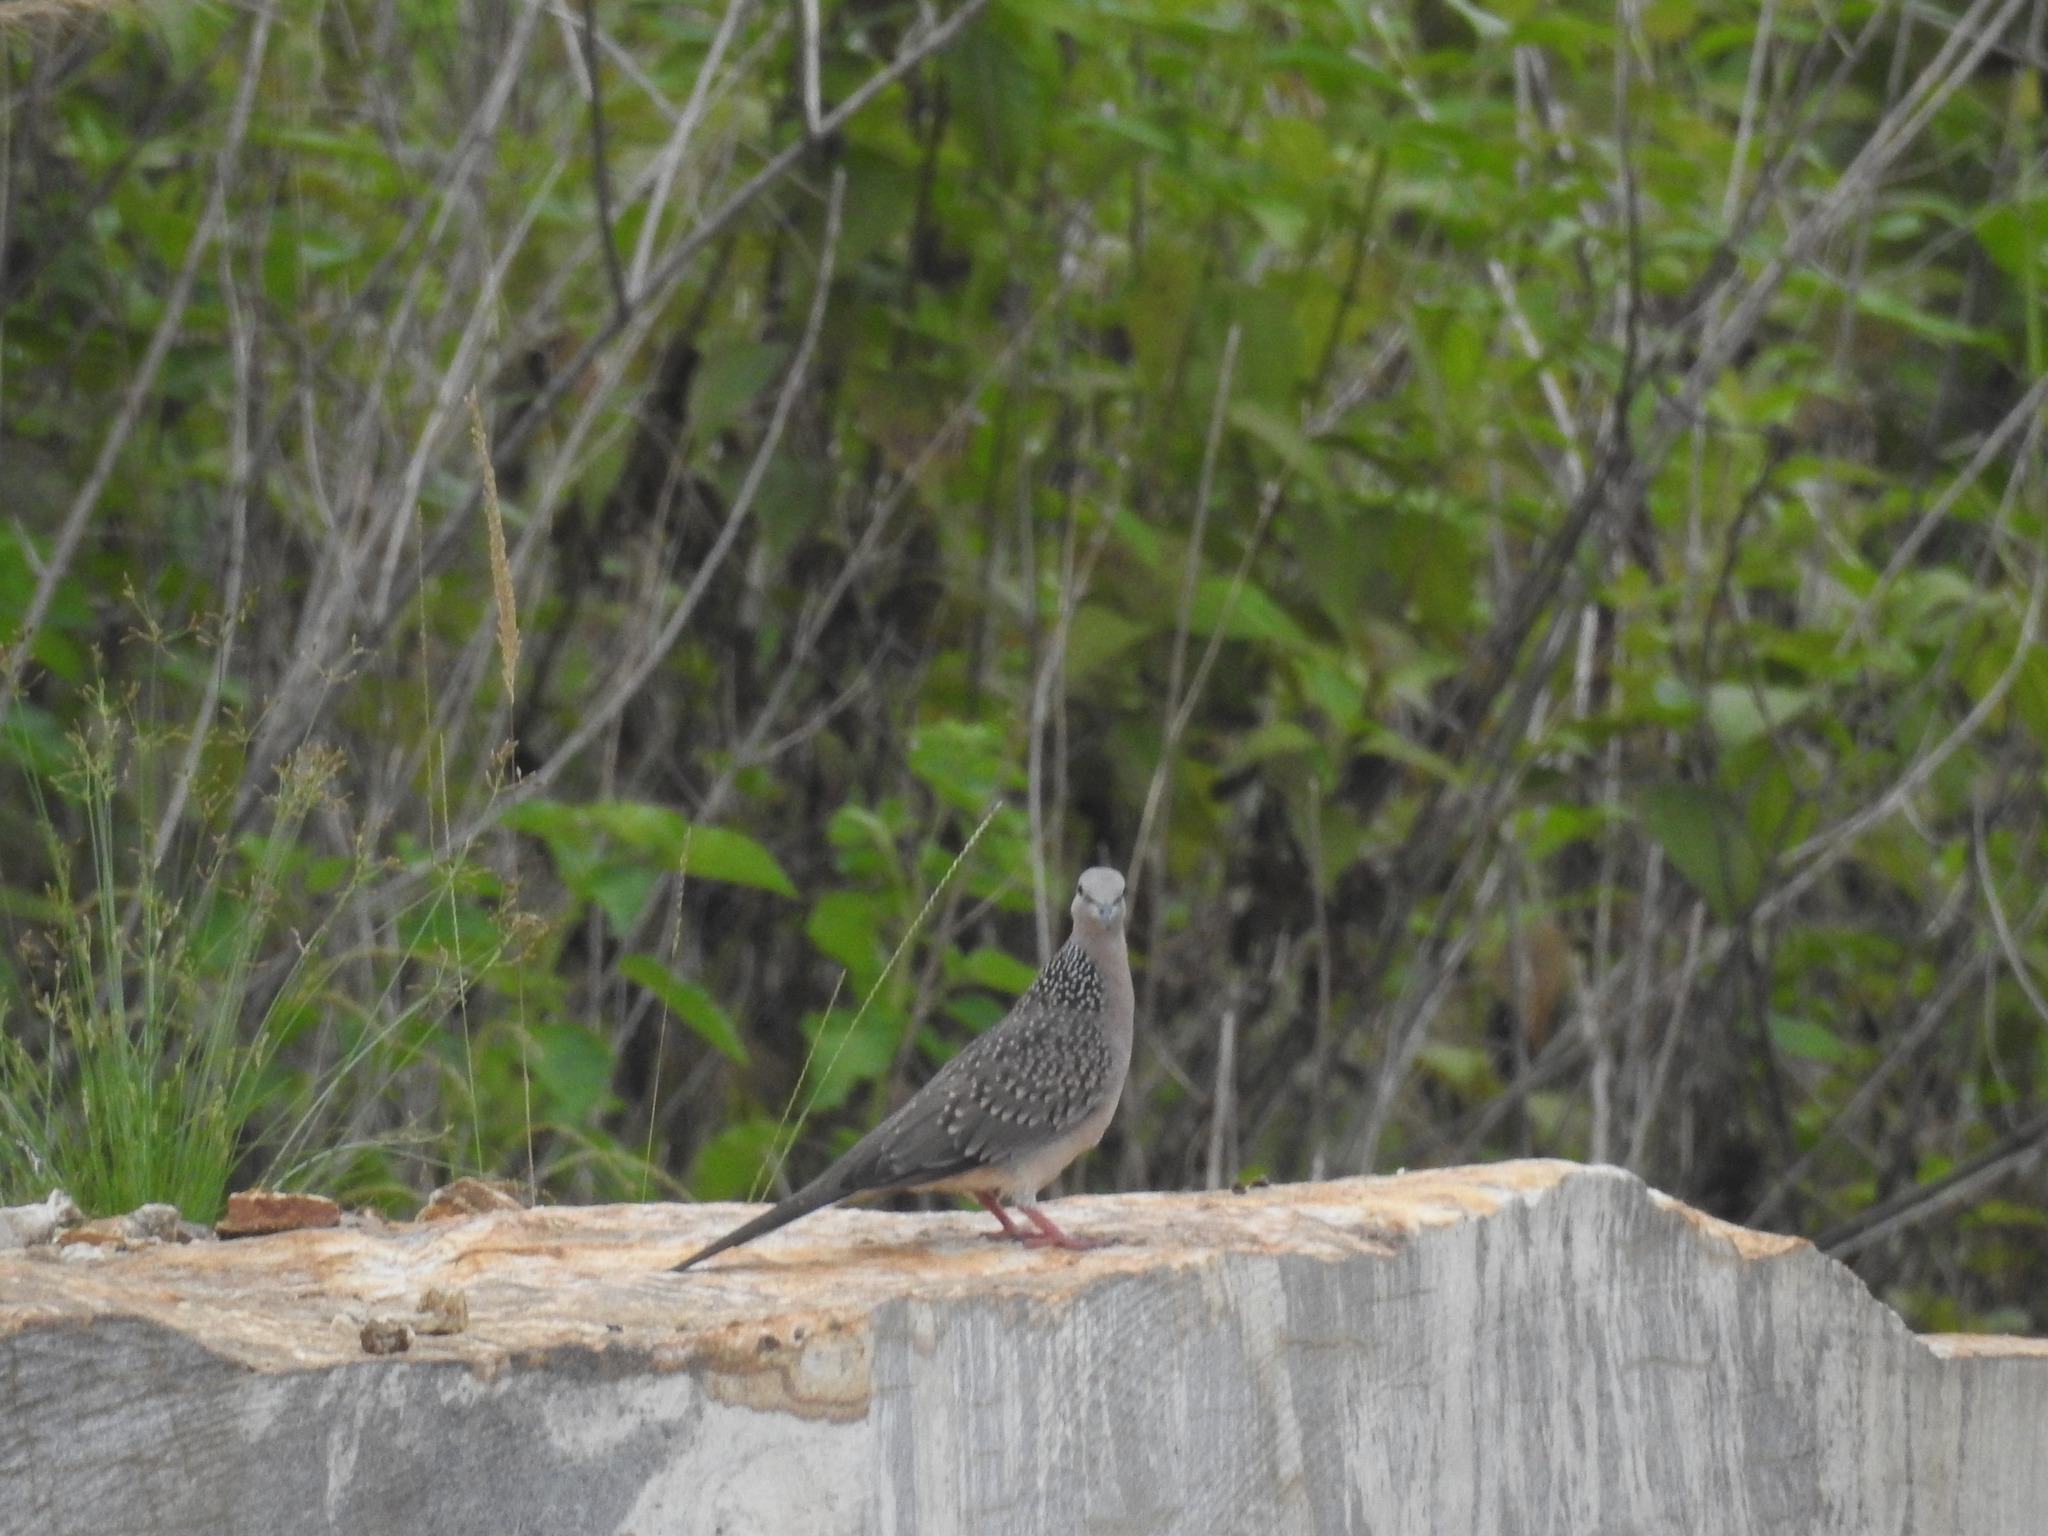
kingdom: Animalia
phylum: Chordata
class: Aves
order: Columbiformes
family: Columbidae
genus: Spilopelia
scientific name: Spilopelia chinensis
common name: Spotted dove
